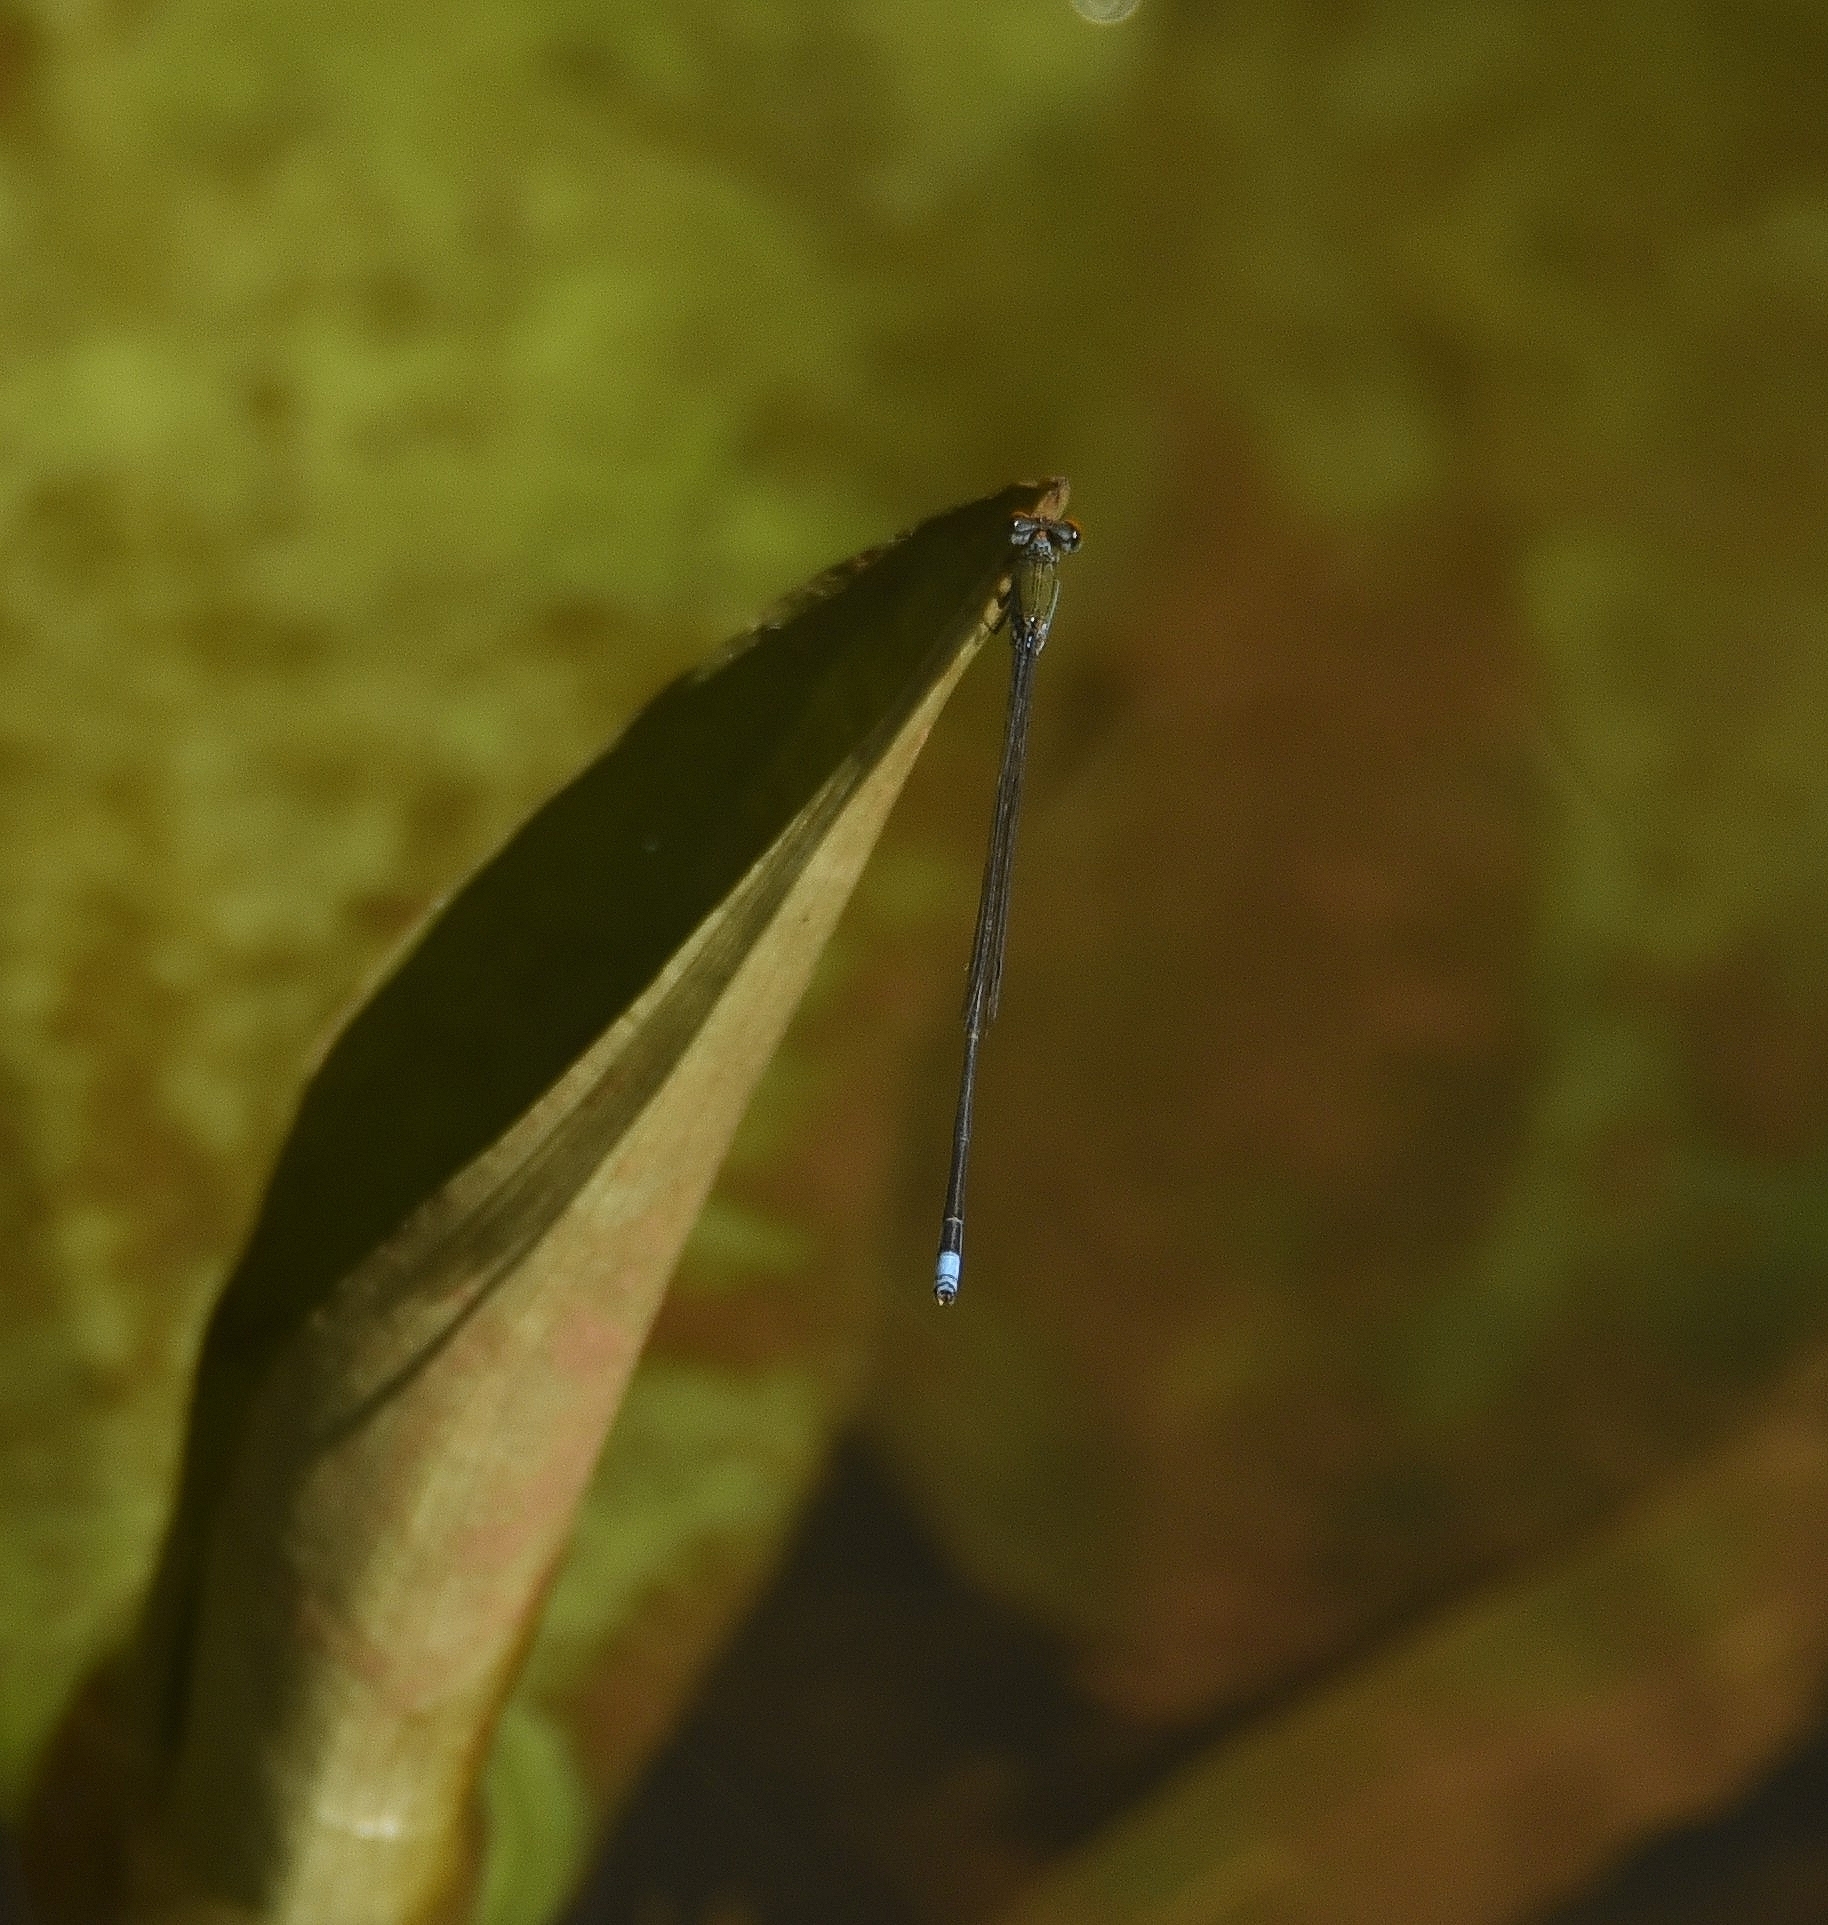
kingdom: Animalia
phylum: Arthropoda
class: Insecta
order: Odonata
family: Coenagrionidae
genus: Pseudagrion
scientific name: Pseudagrion rubriceps
